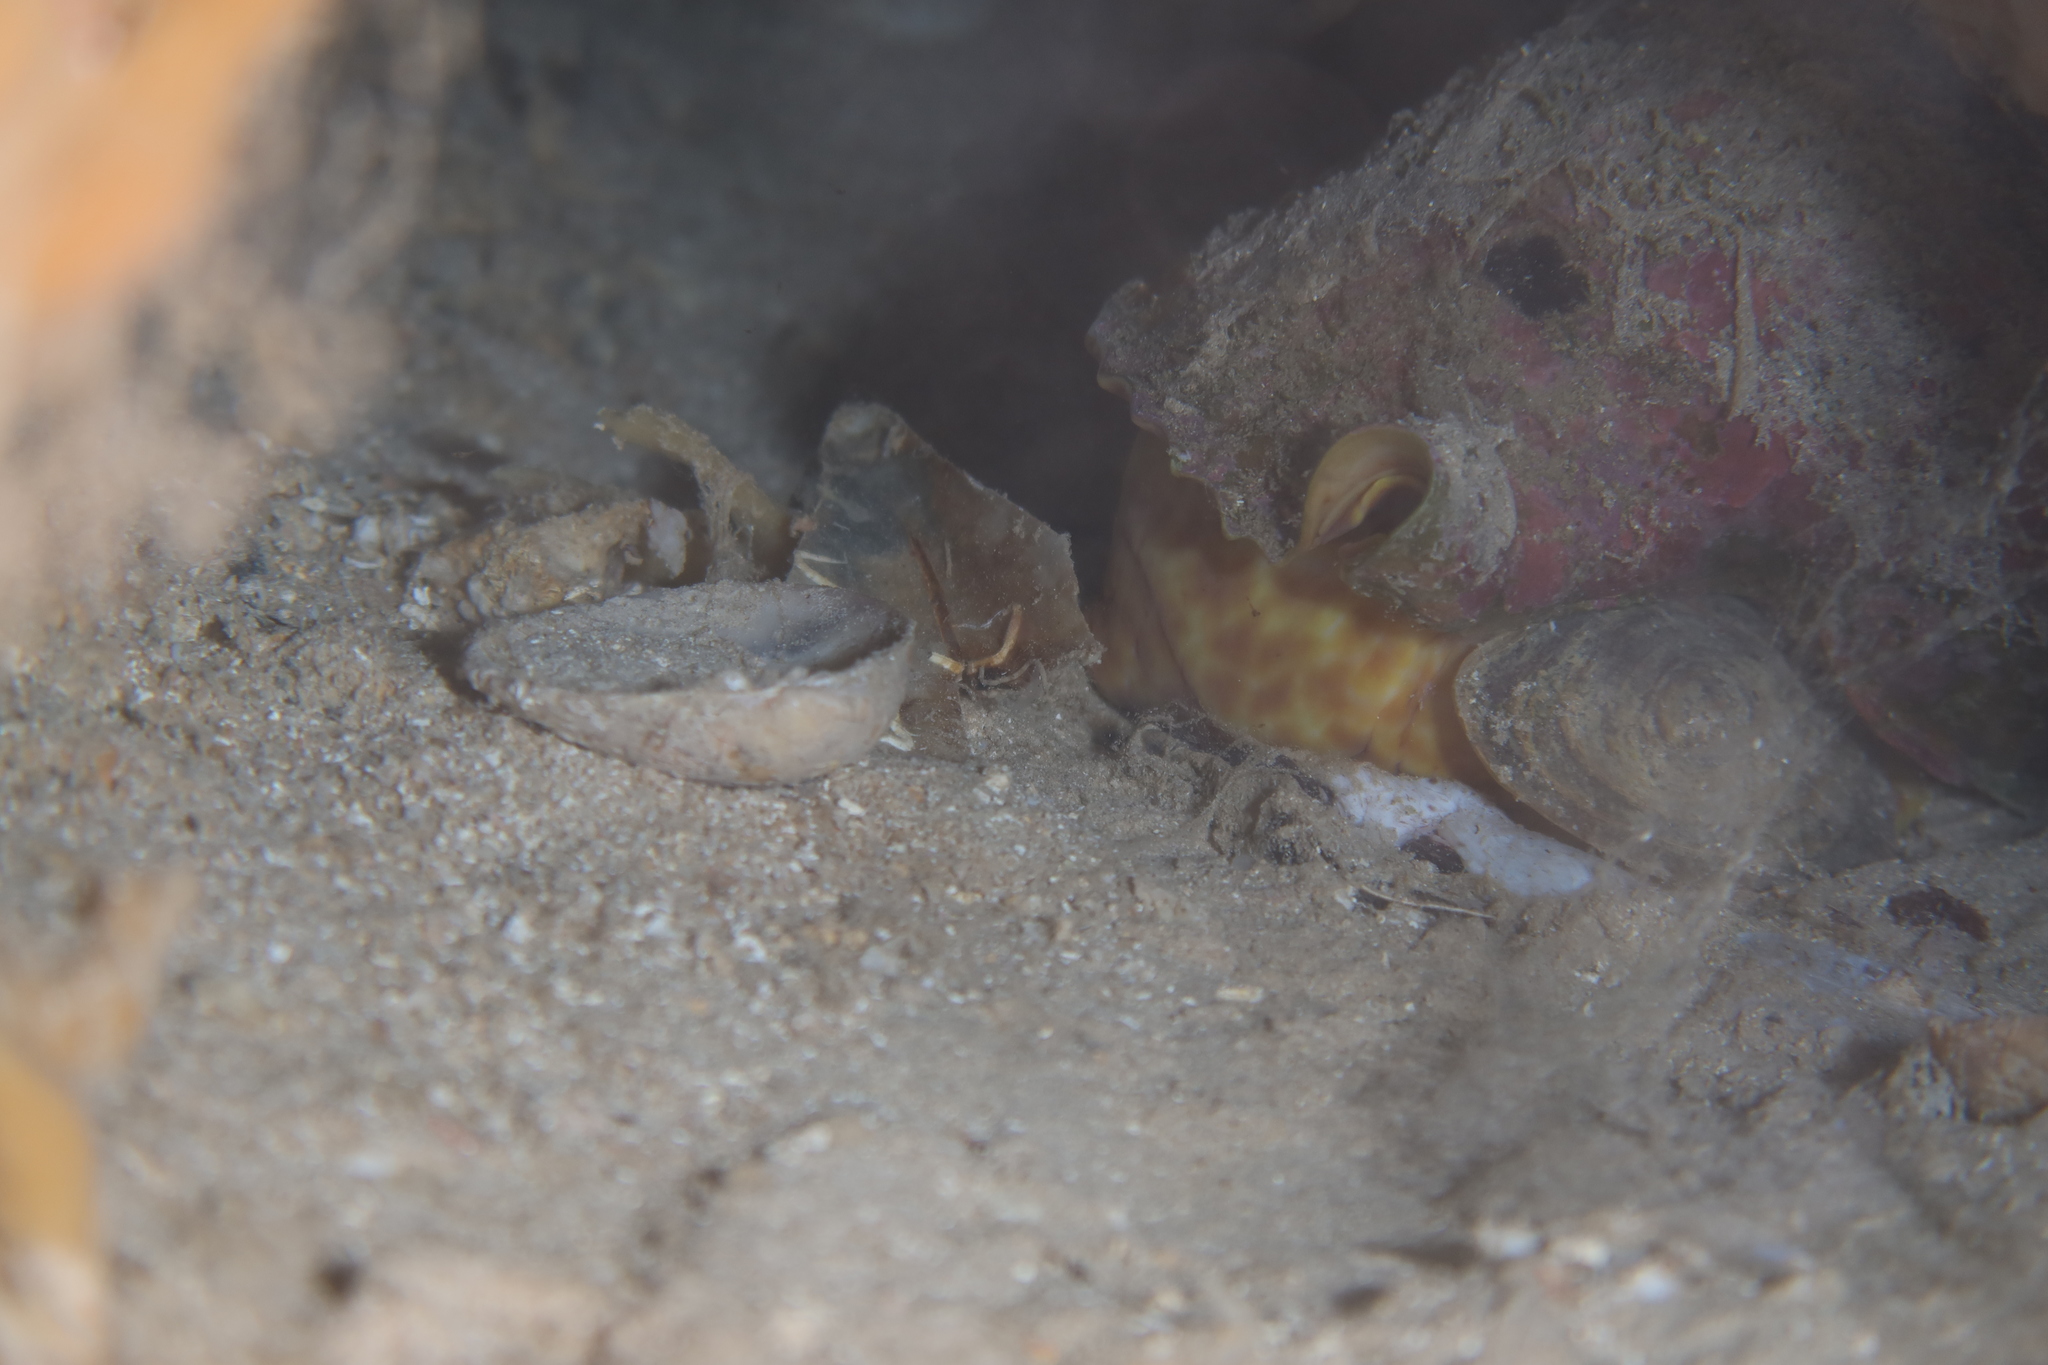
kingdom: Animalia
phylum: Mollusca
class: Gastropoda
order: Littorinimorpha
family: Charoniidae
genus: Charonia
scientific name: Charonia variegata
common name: Atlantic triton
